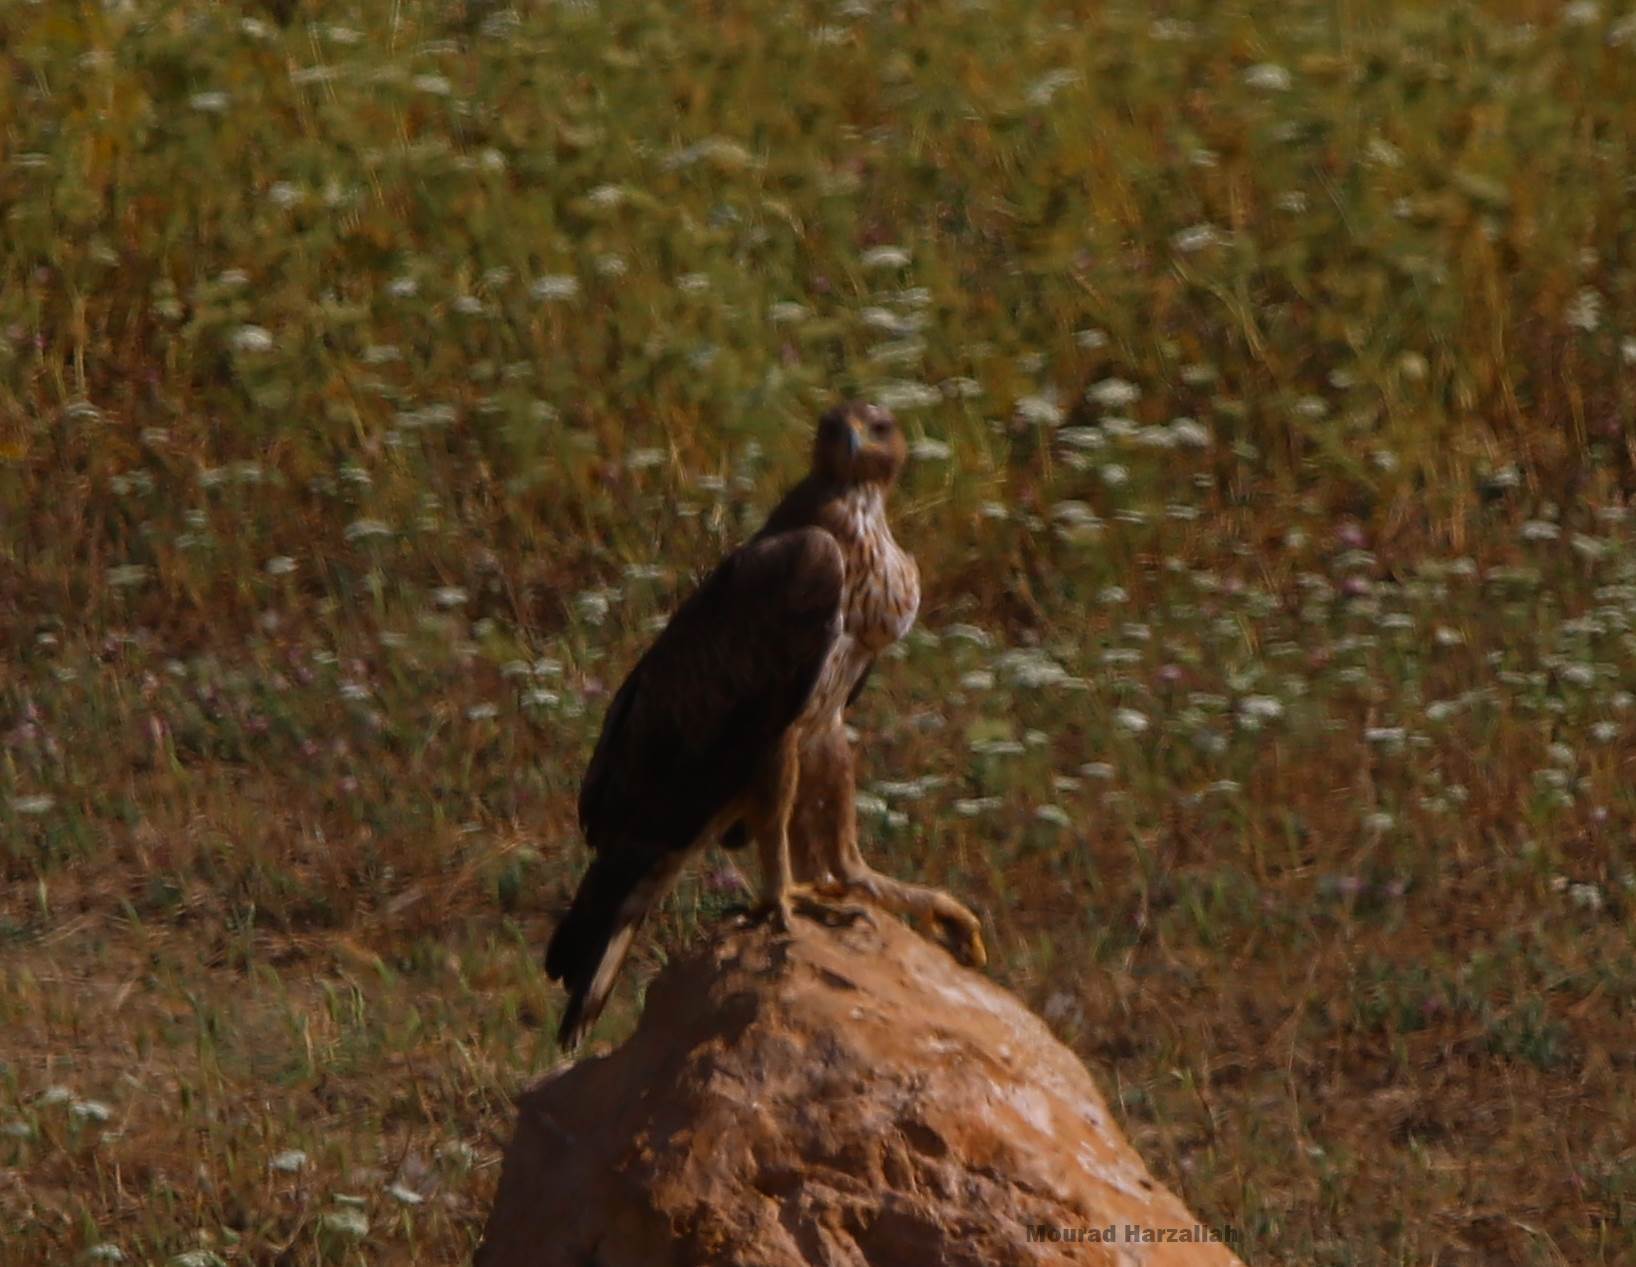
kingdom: Animalia
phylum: Chordata
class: Aves
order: Accipitriformes
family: Accipitridae
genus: Aquila
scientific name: Aquila fasciata
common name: Bonelli's eagle
